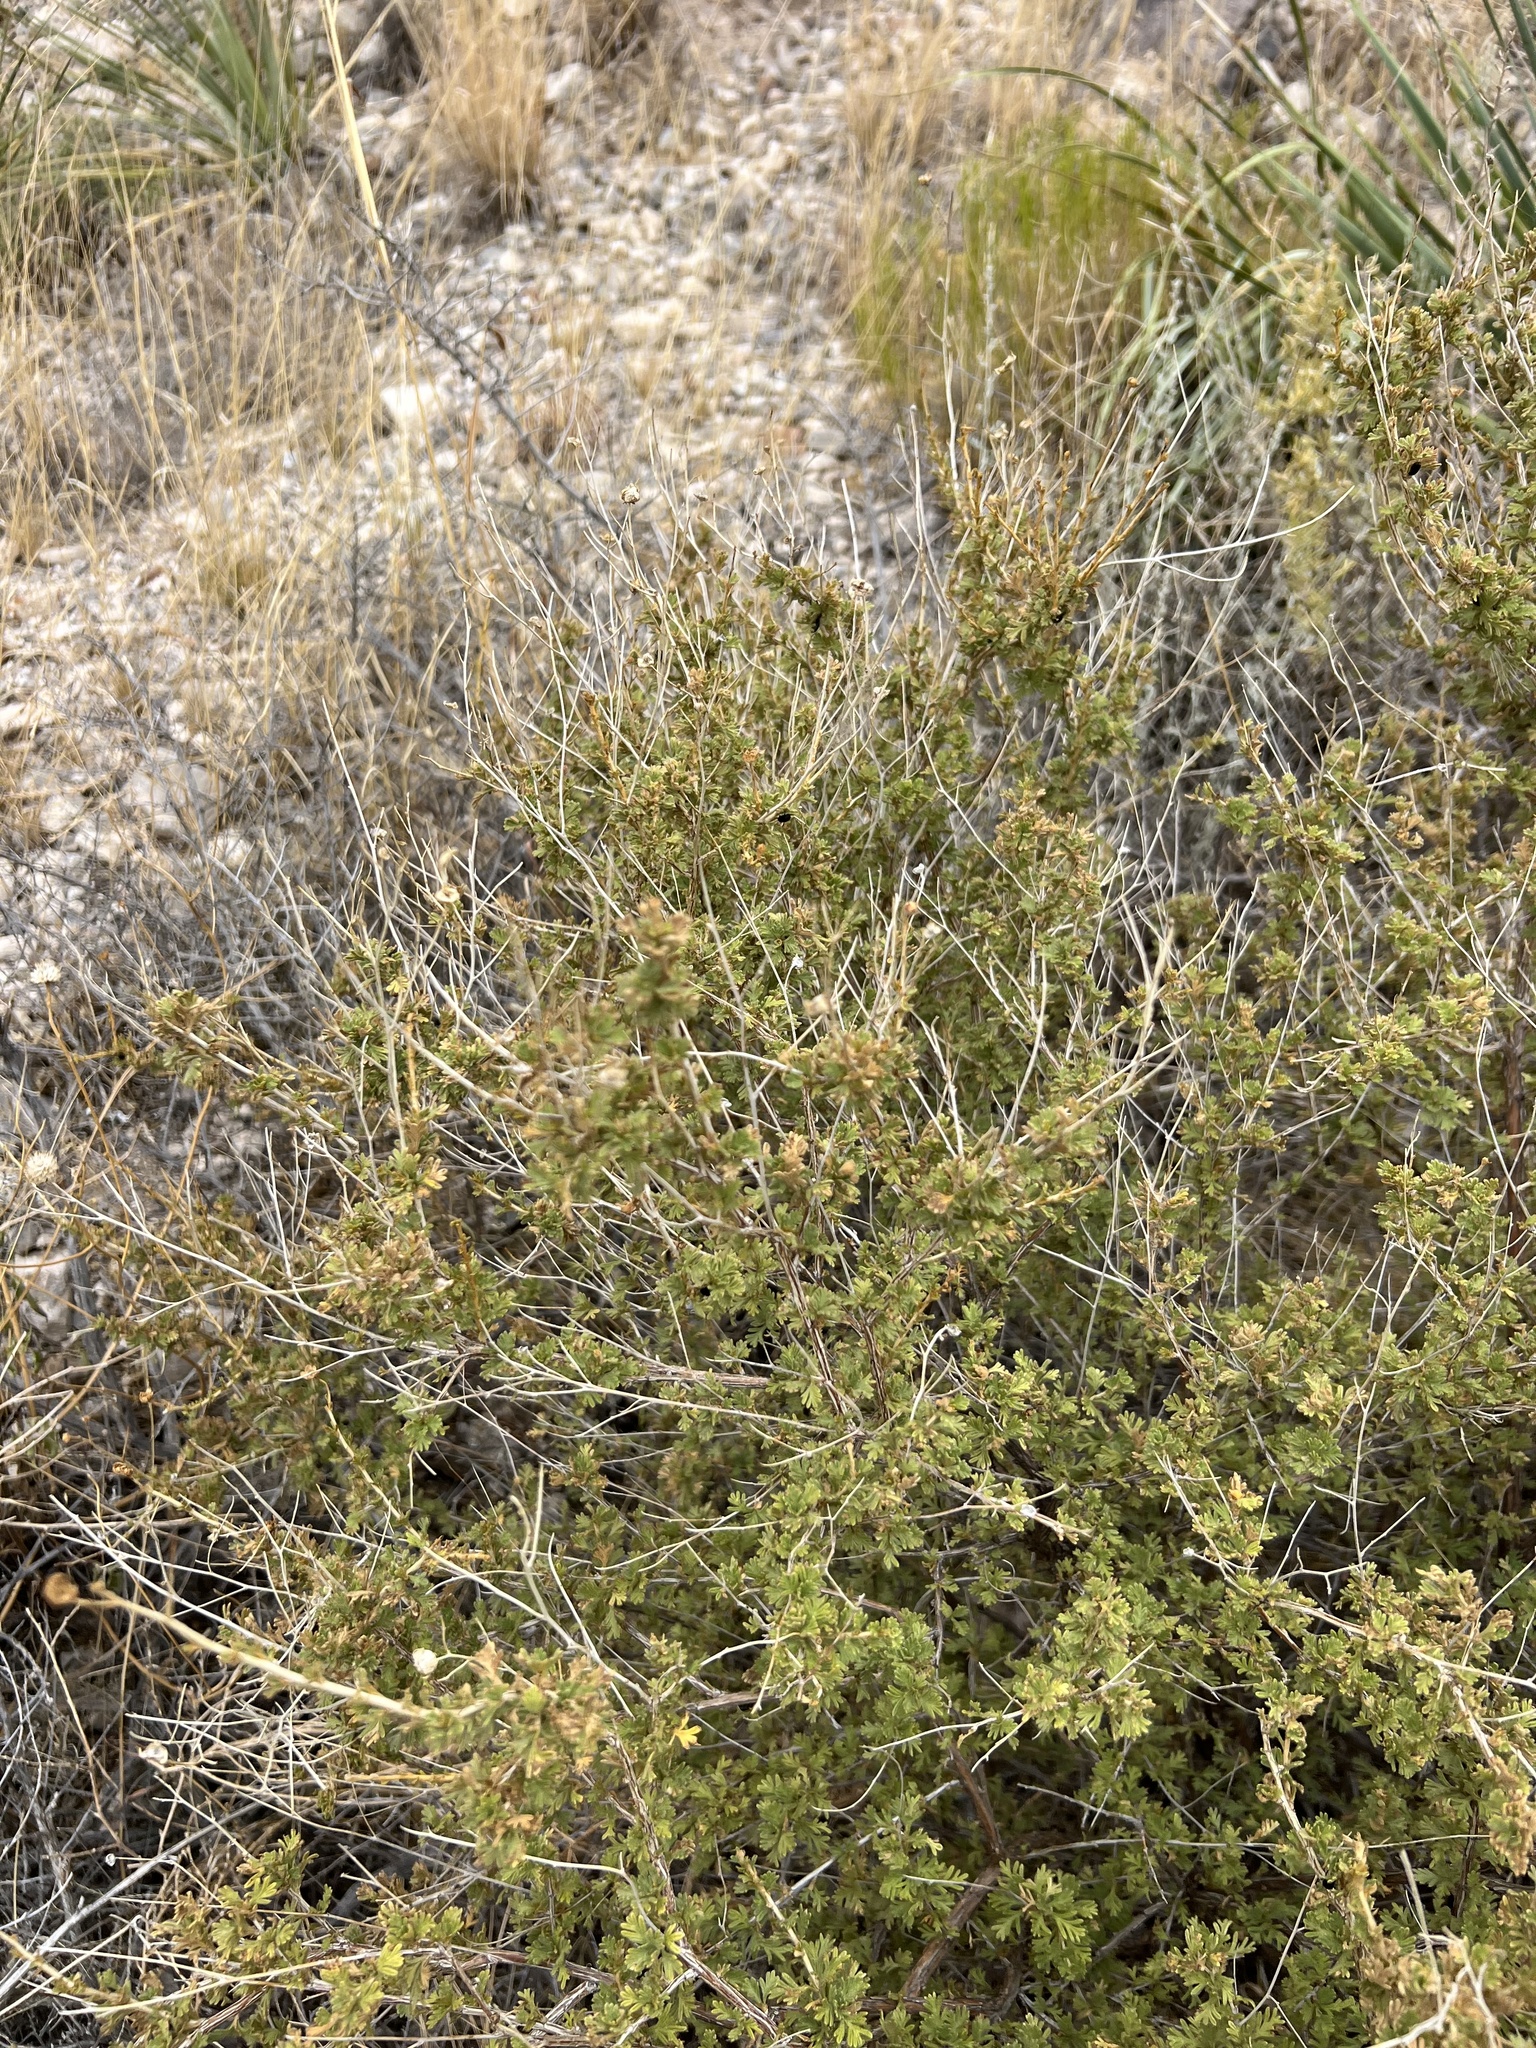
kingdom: Plantae
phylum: Tracheophyta
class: Magnoliopsida
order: Rosales
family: Rosaceae
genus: Fallugia
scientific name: Fallugia paradoxa
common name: Apache-plume
